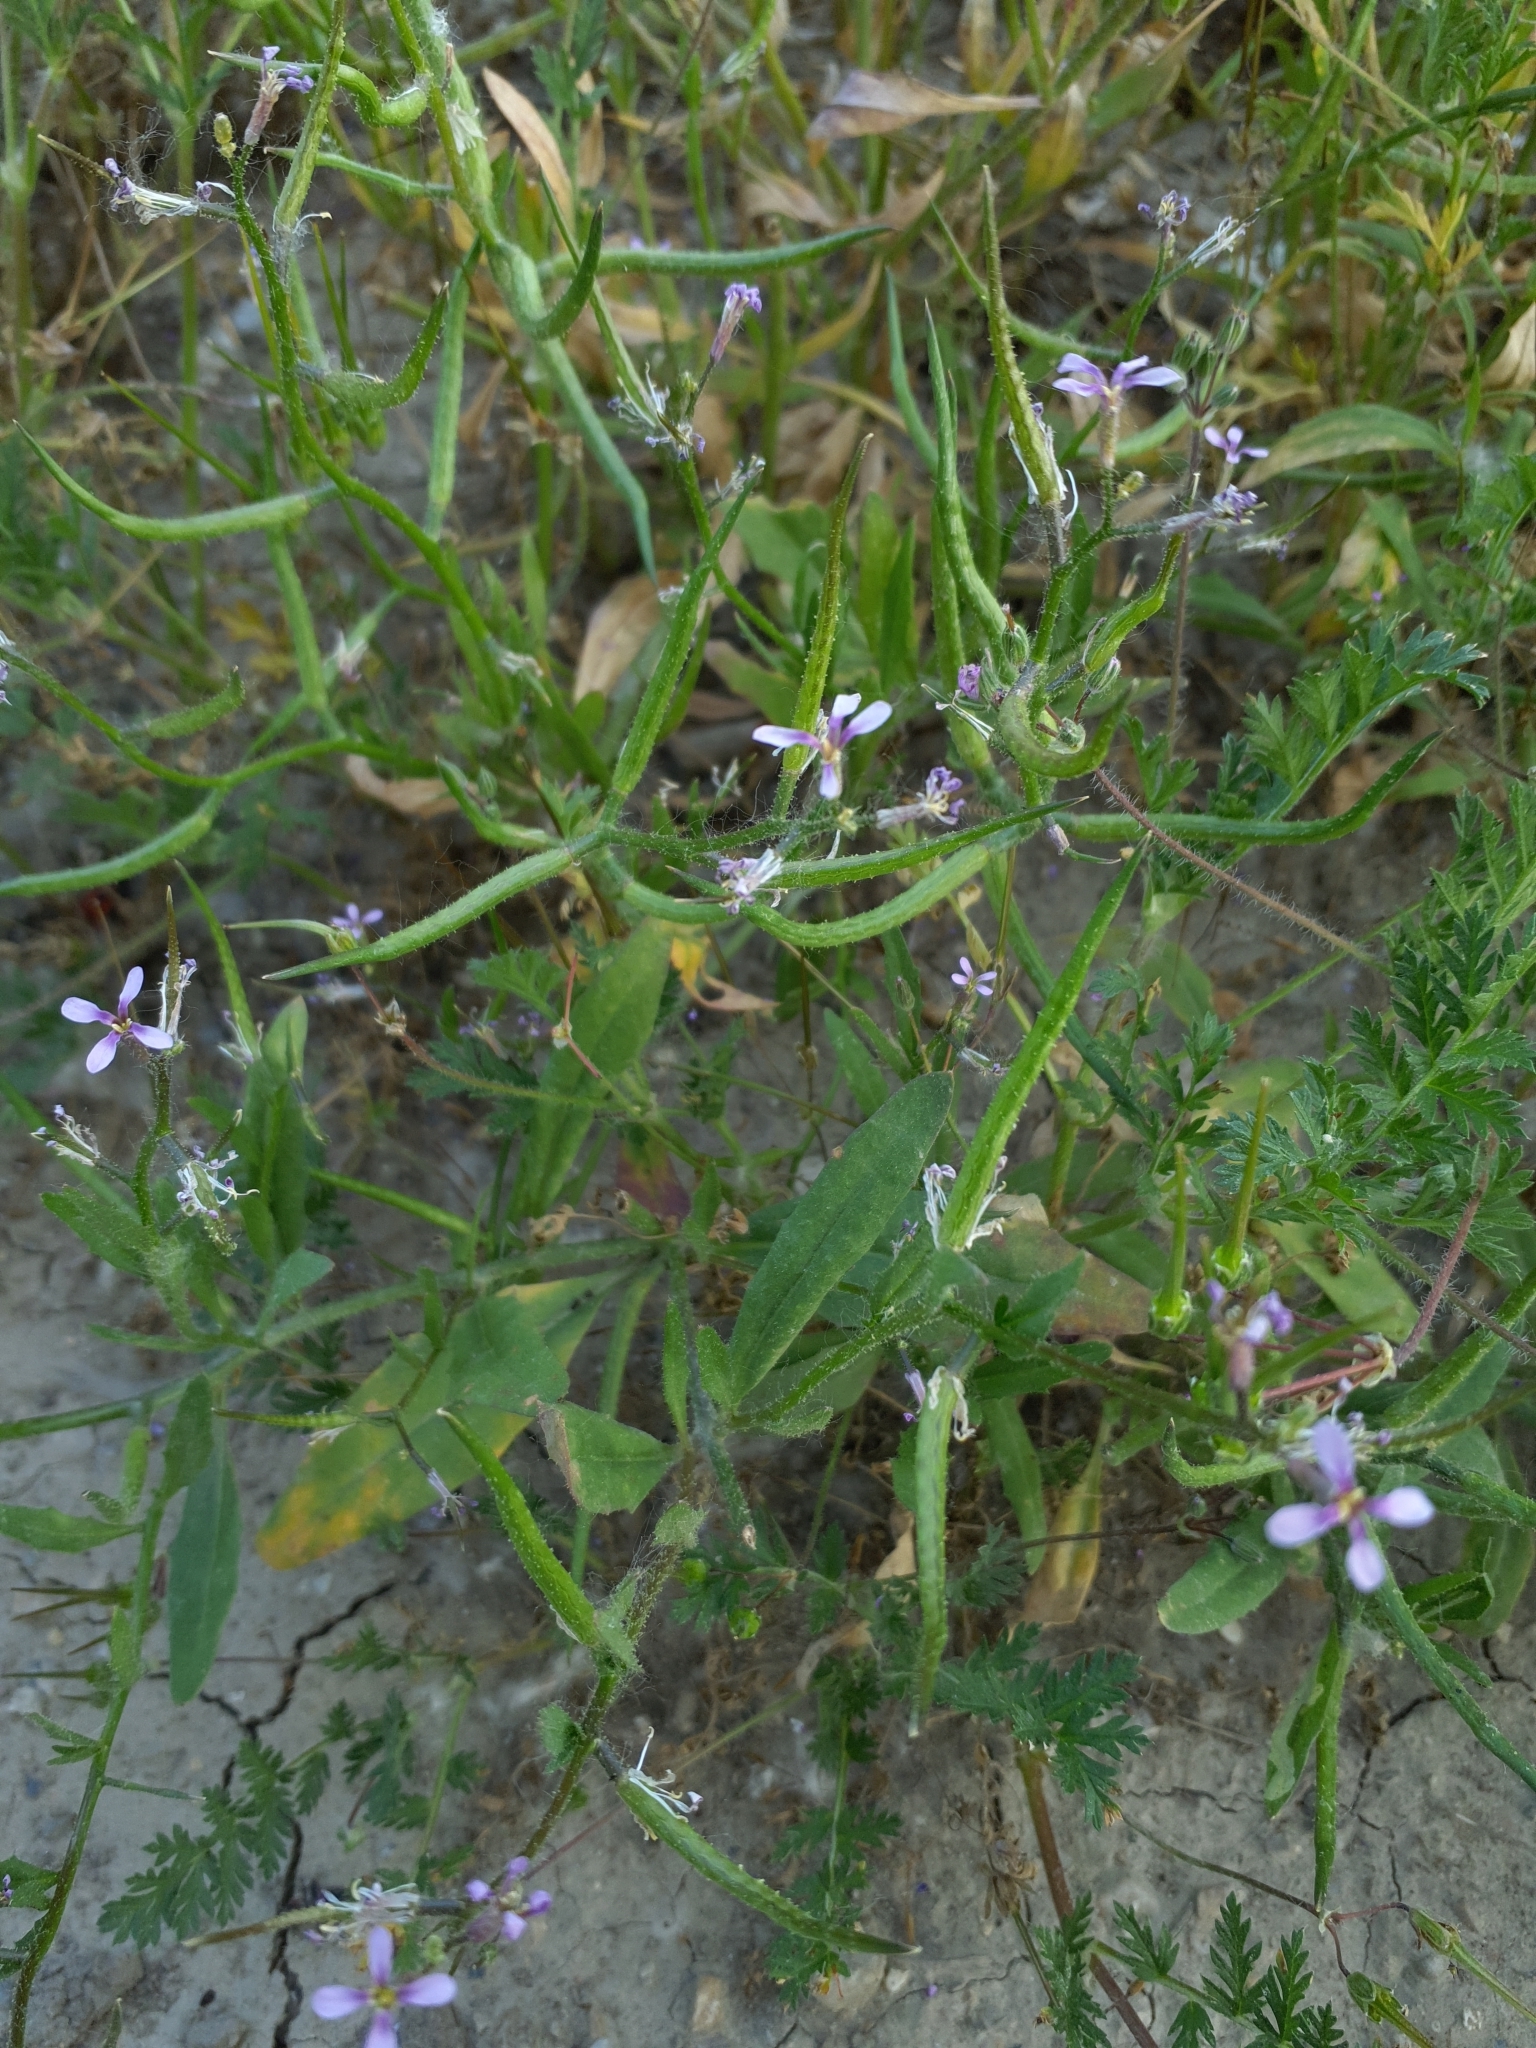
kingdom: Plantae
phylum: Tracheophyta
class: Magnoliopsida
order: Brassicales
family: Brassicaceae
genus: Chorispora
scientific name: Chorispora tenella
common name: Crossflower
